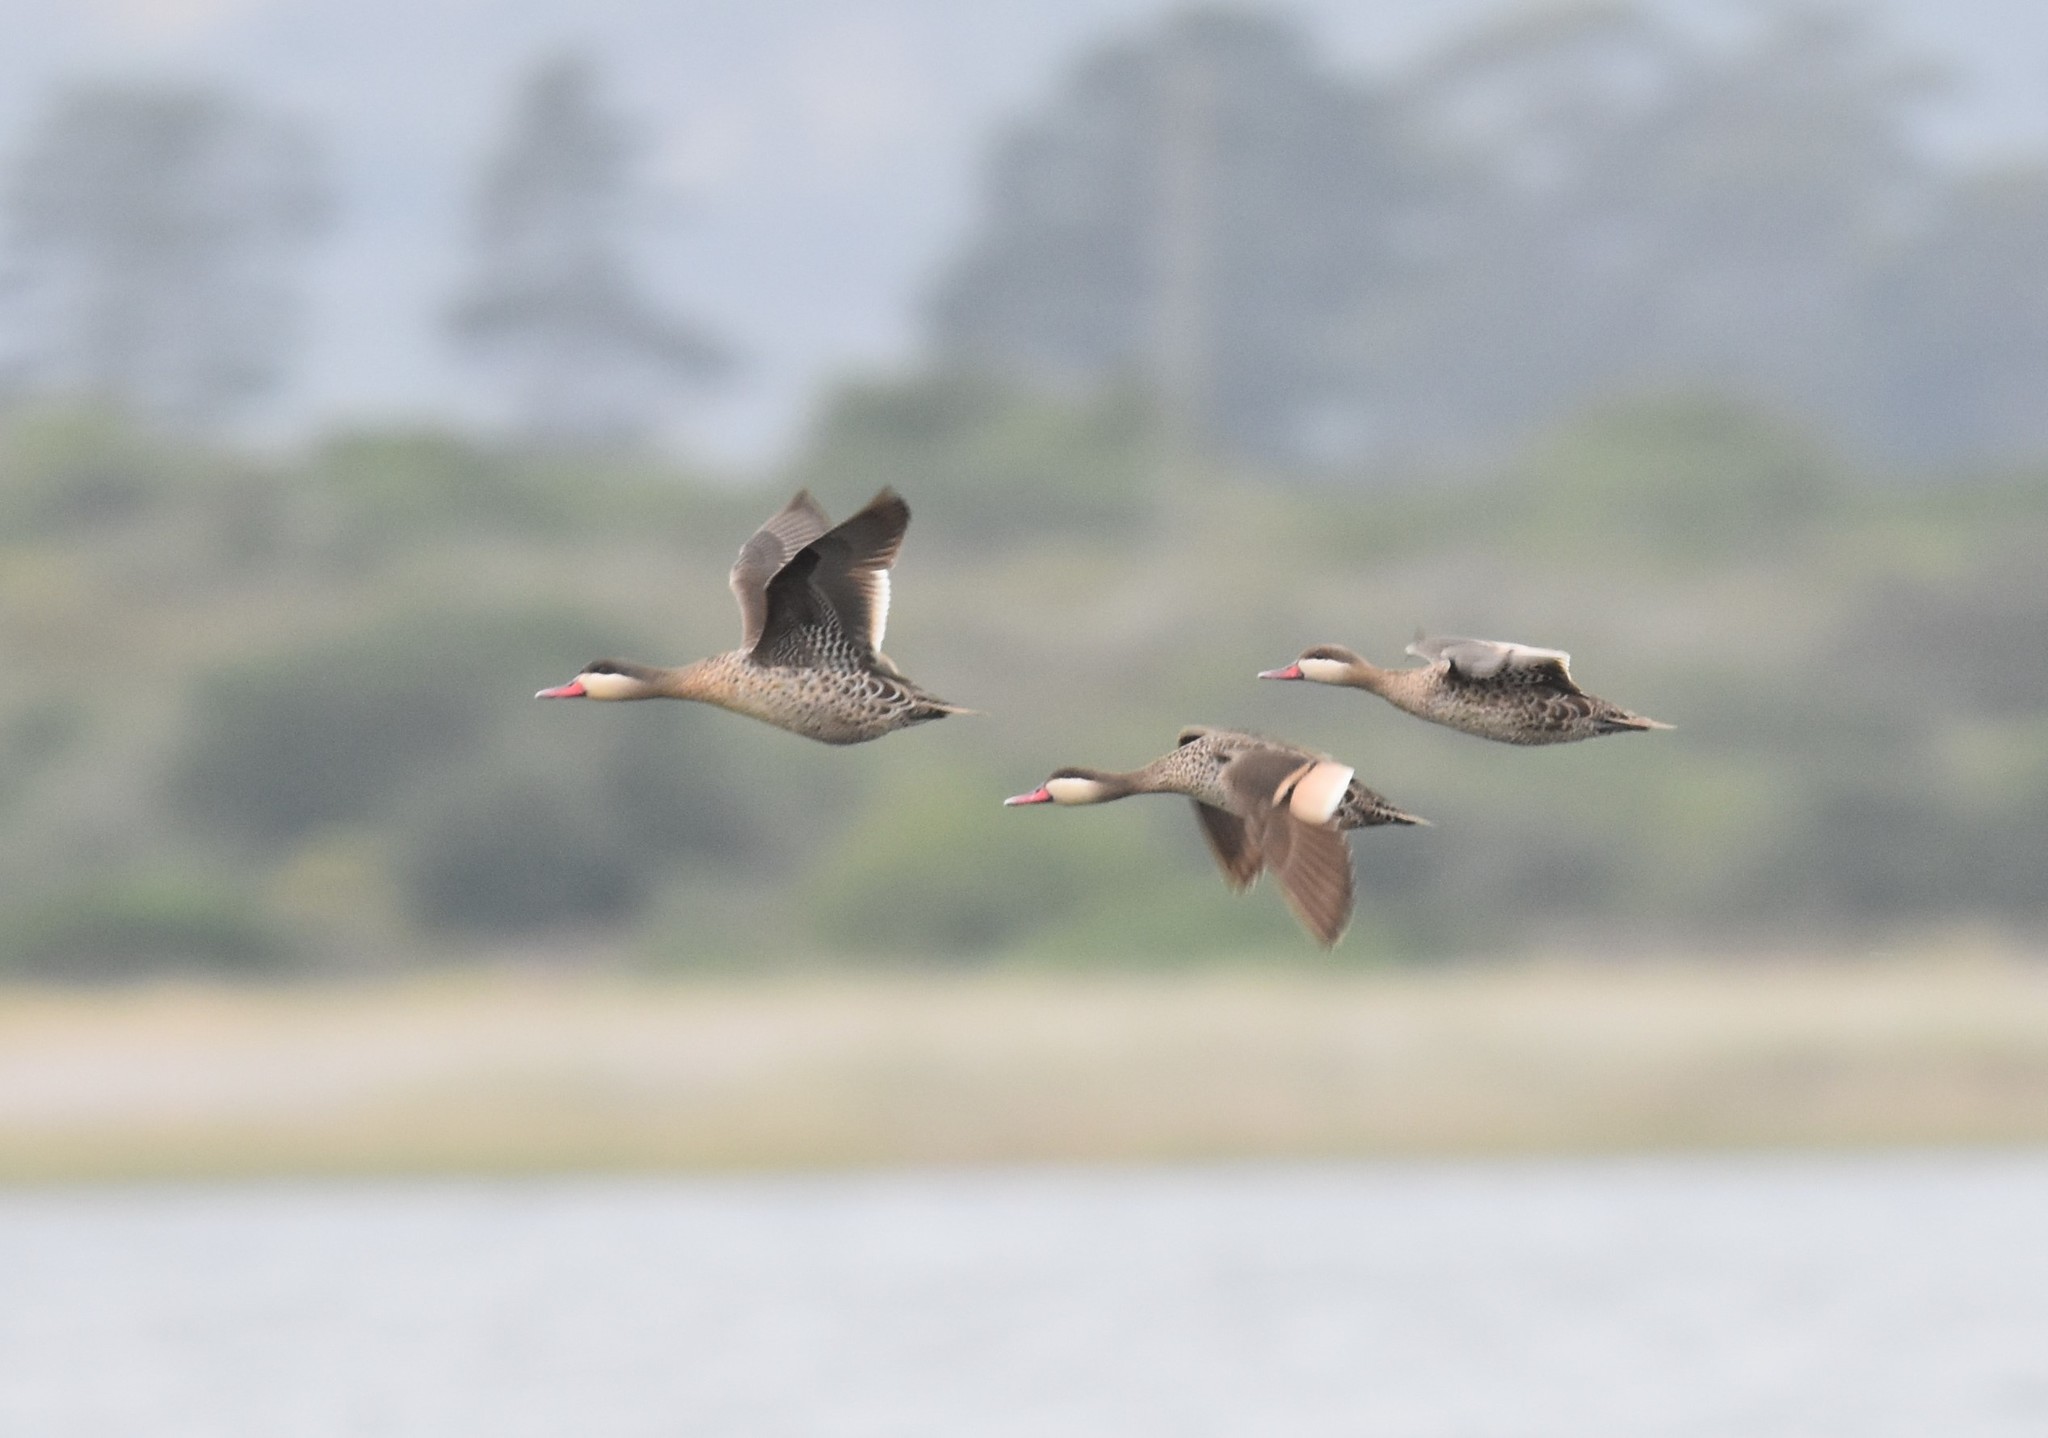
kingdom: Animalia
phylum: Chordata
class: Aves
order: Anseriformes
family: Anatidae
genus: Anas
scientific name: Anas erythrorhyncha
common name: Red-billed teal
